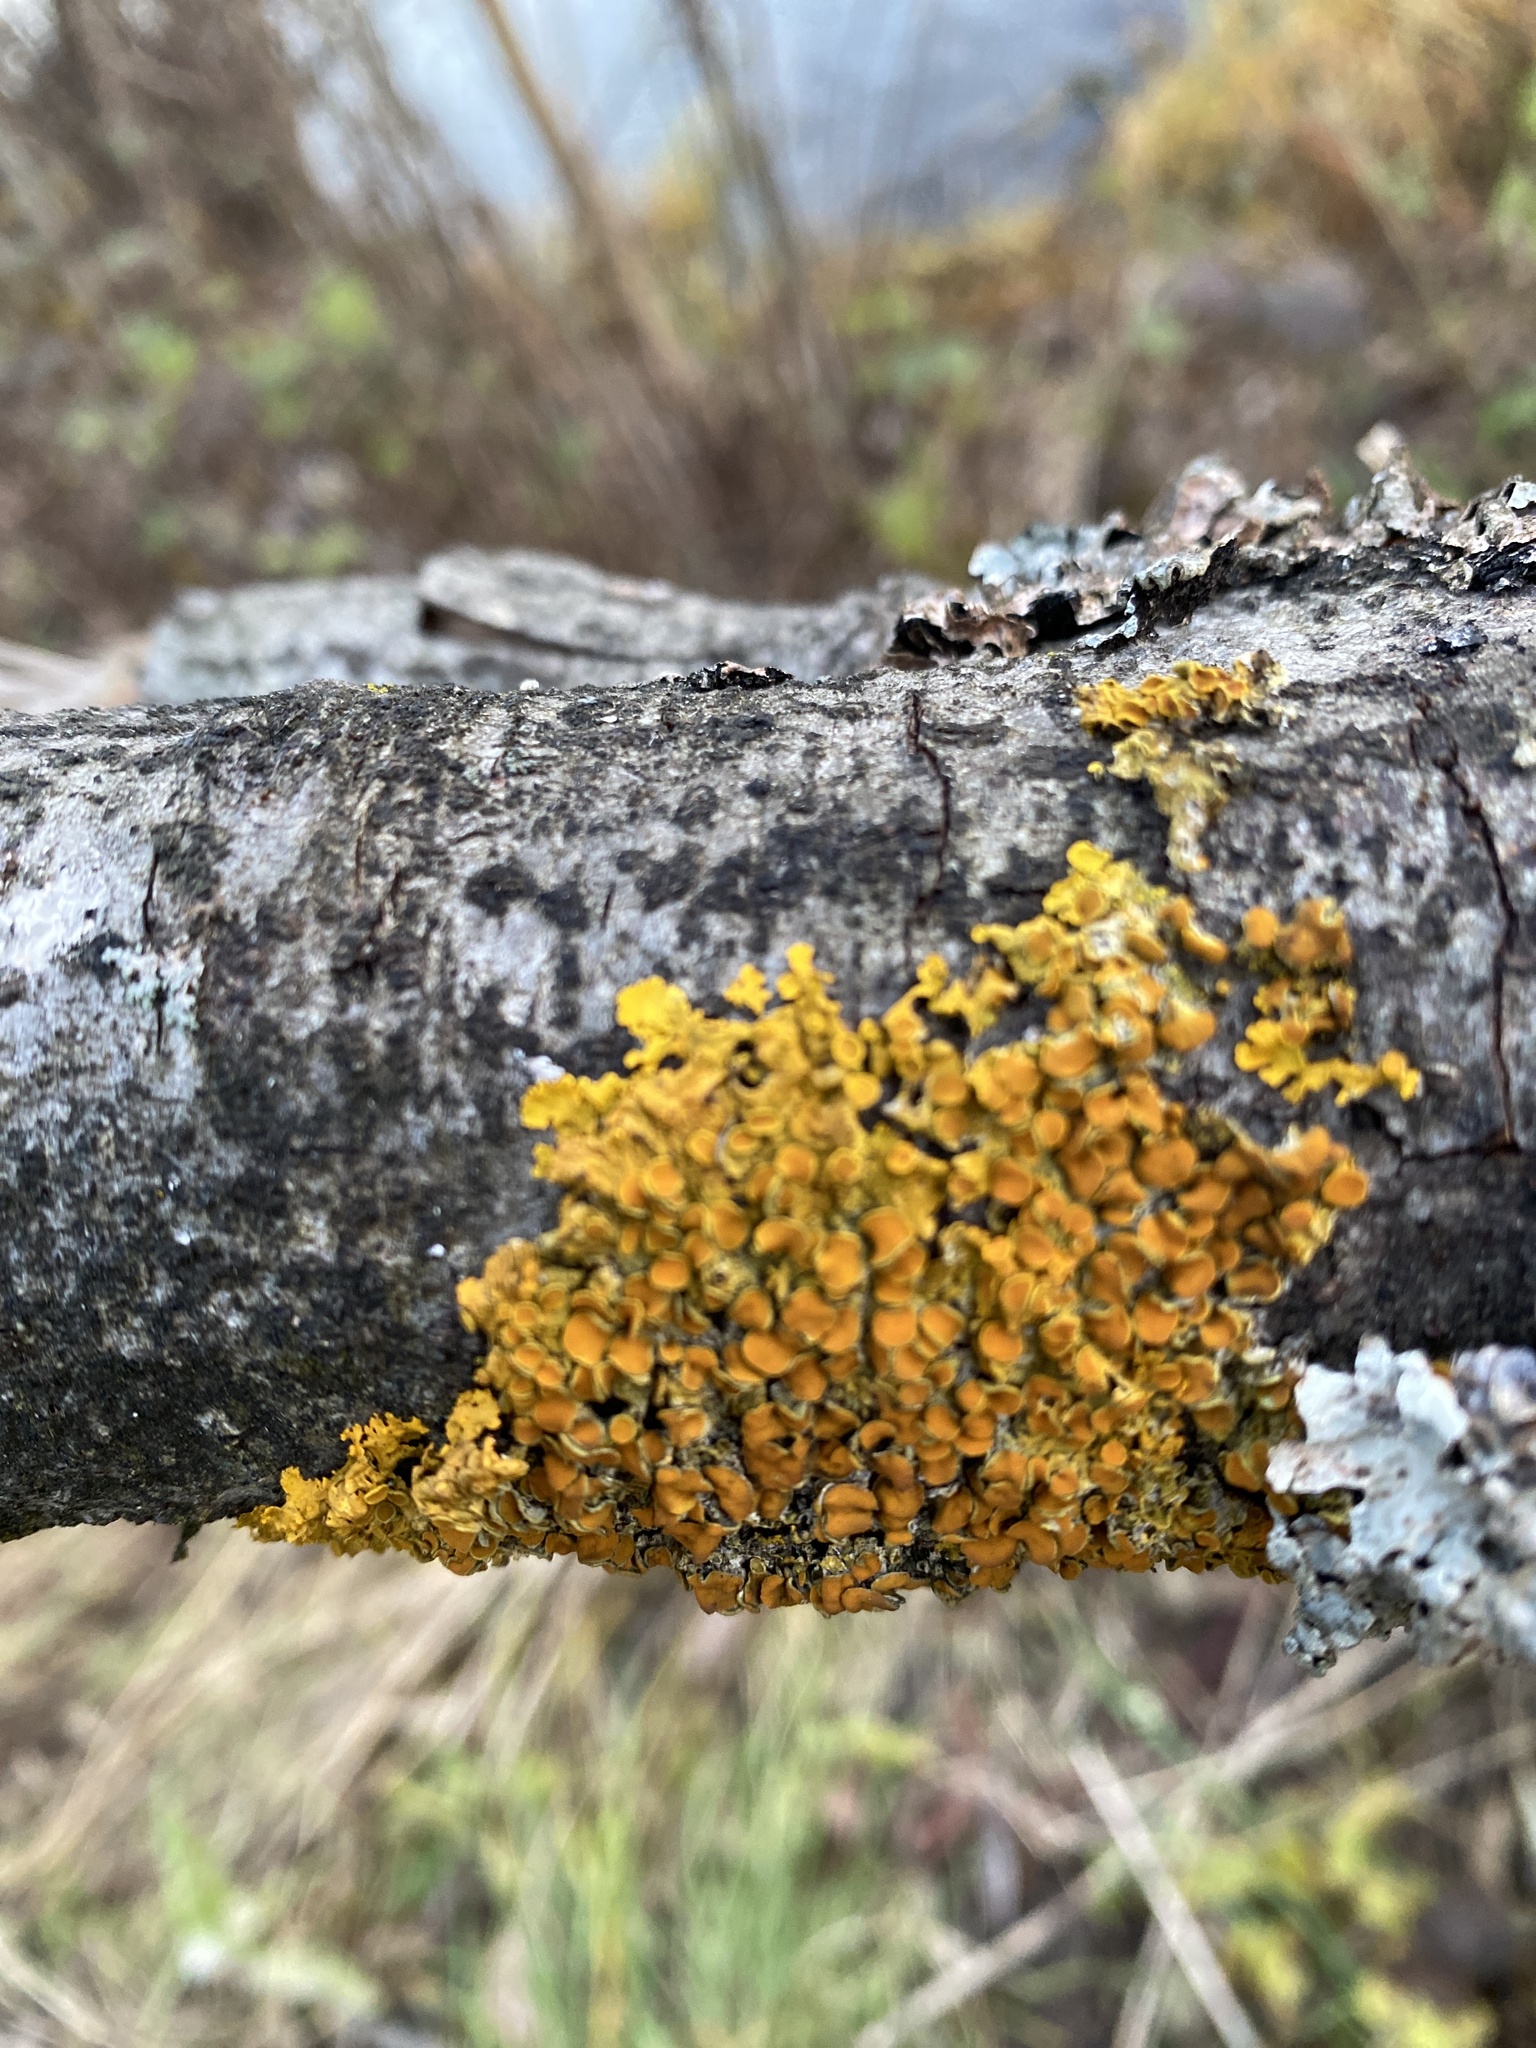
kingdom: Fungi
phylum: Ascomycota
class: Lecanoromycetes
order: Teloschistales
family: Teloschistaceae
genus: Xanthoria
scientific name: Xanthoria parietina
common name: Common orange lichen
